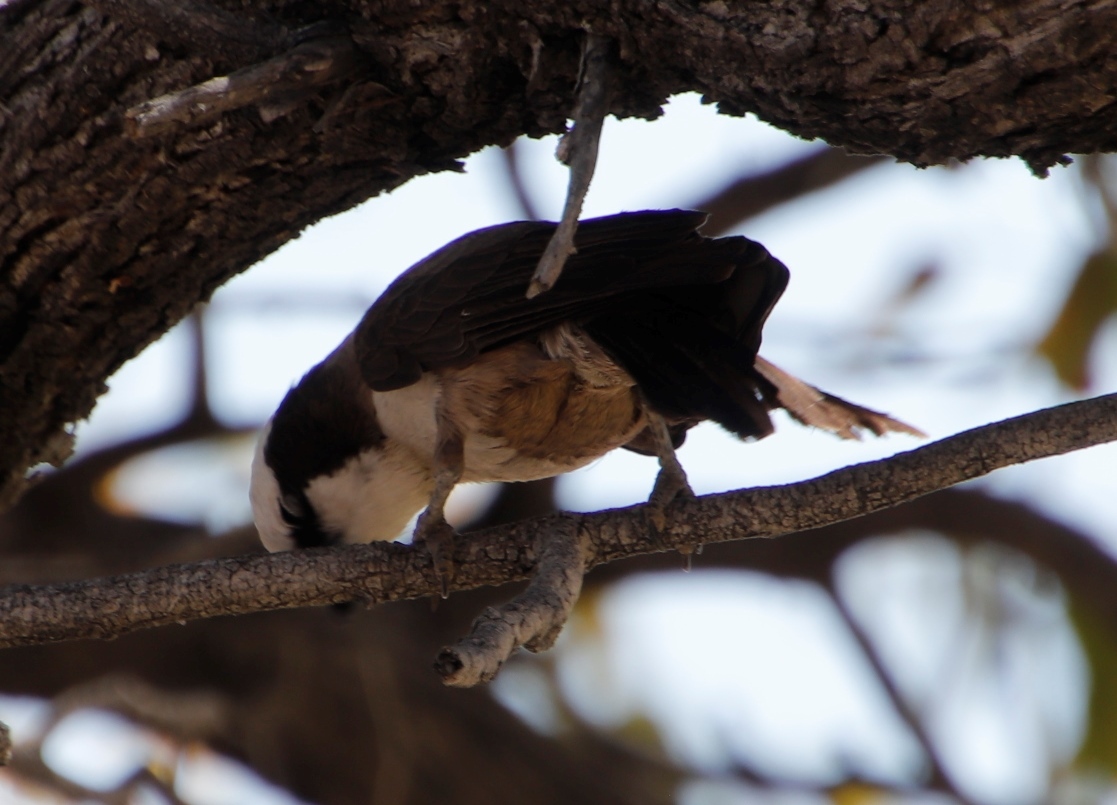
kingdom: Animalia
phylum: Chordata
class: Aves
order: Passeriformes
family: Laniidae
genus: Eurocephalus
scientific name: Eurocephalus anguitimens
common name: Southern white-crowned shrike
